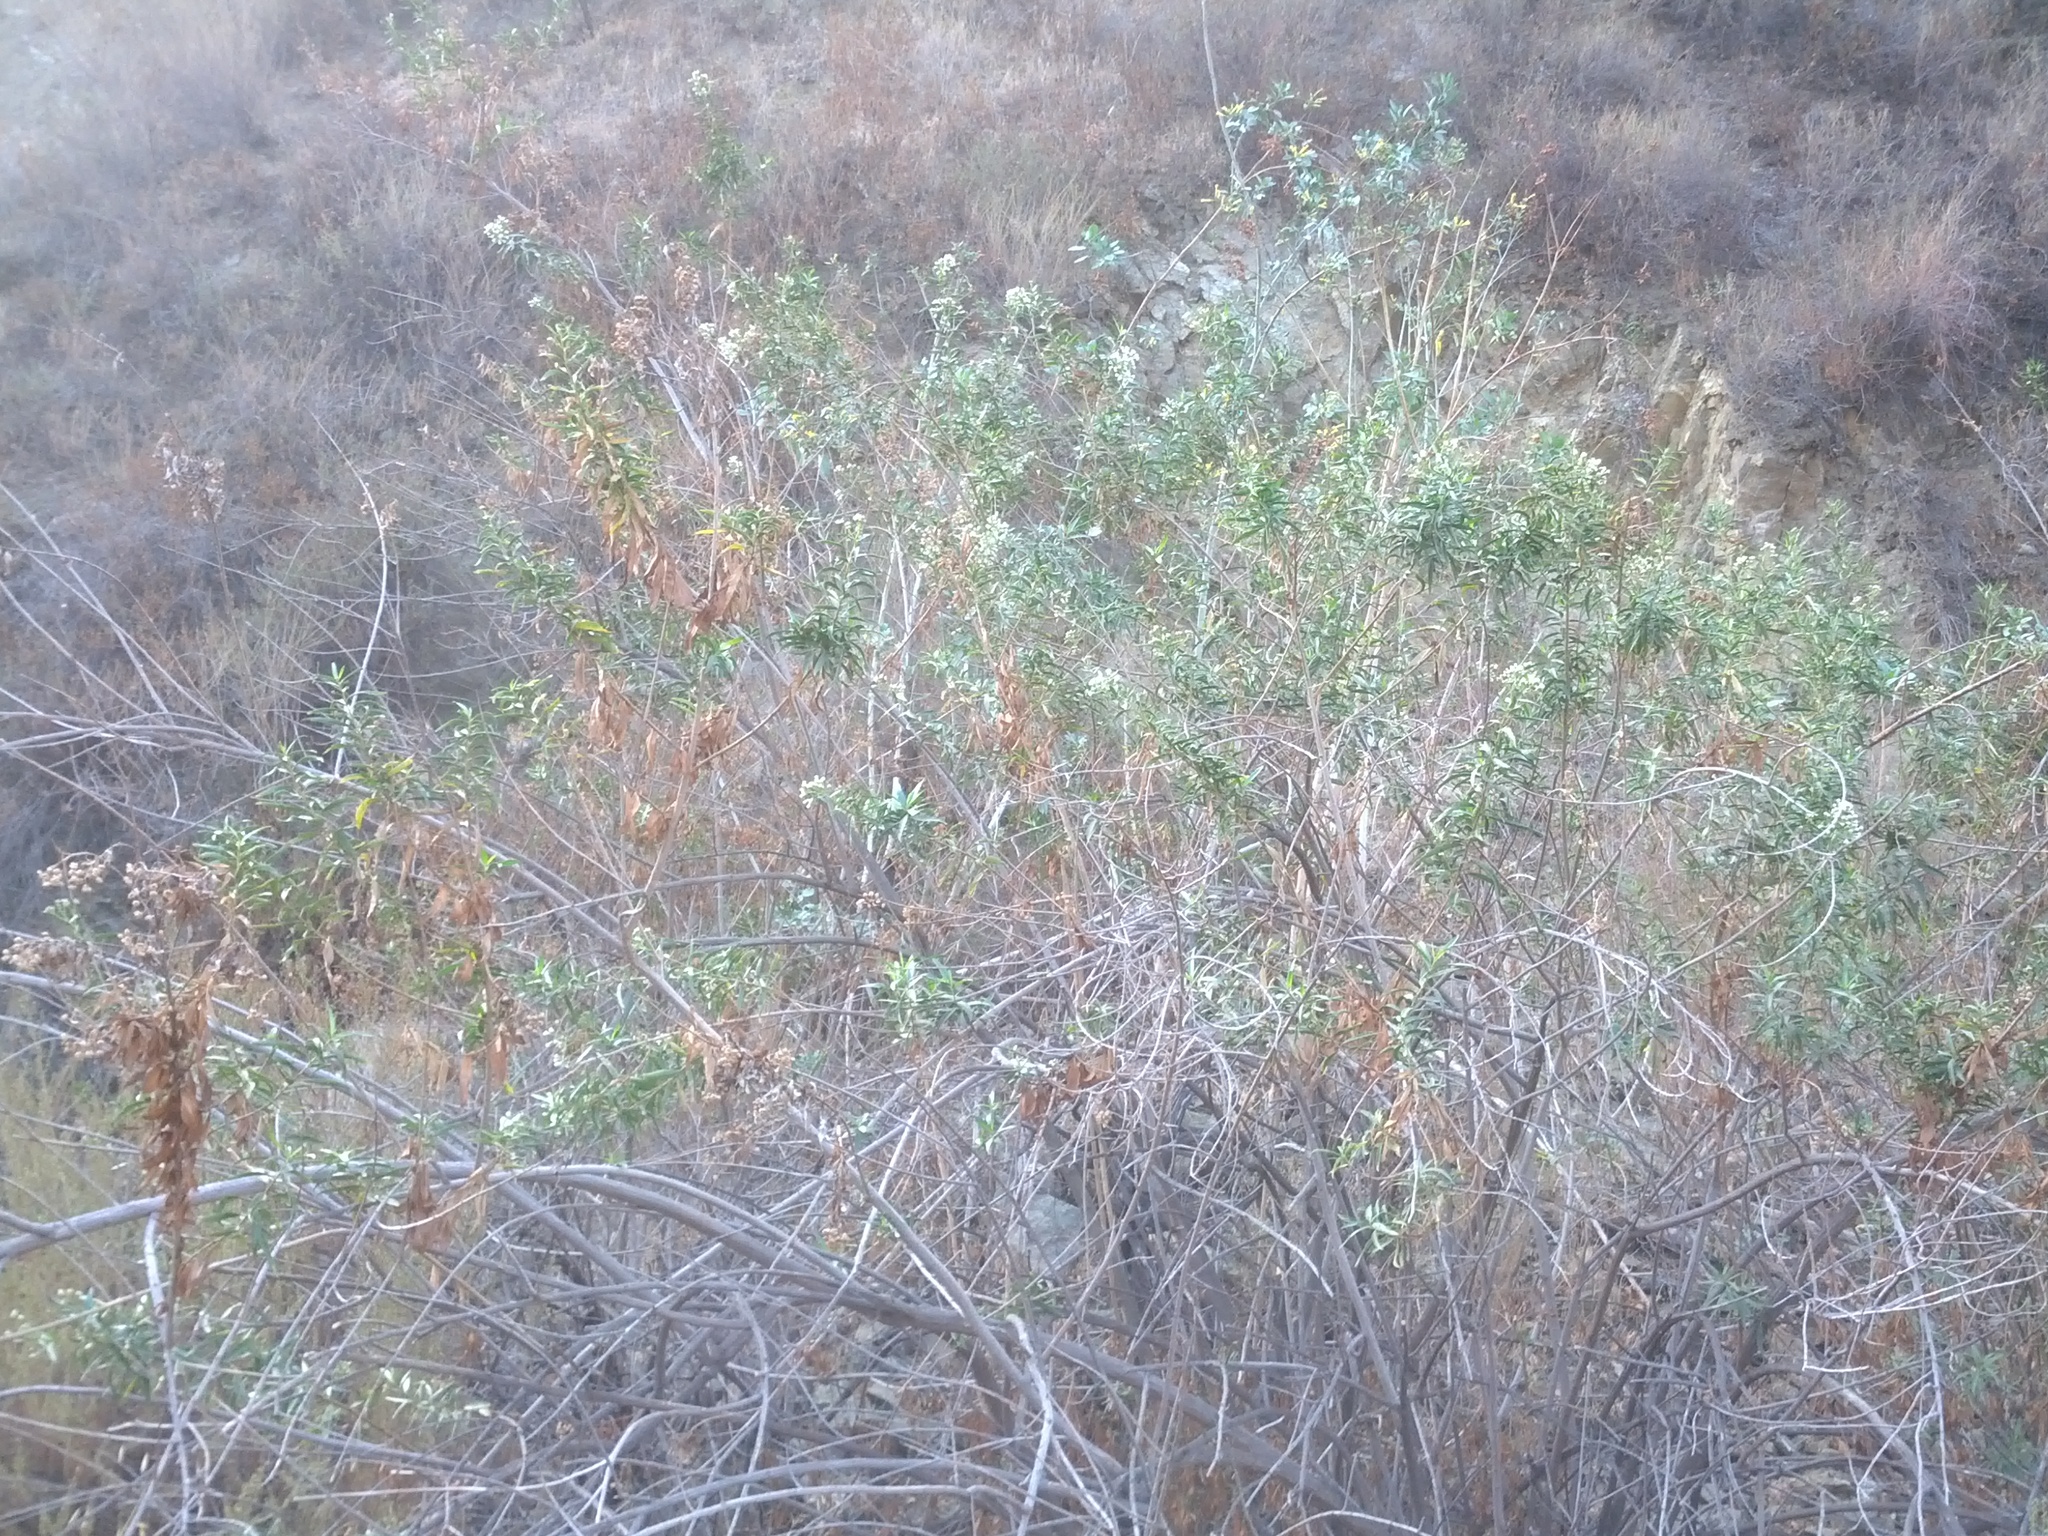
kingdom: Plantae
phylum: Tracheophyta
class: Magnoliopsida
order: Asterales
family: Asteraceae
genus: Baccharis
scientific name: Baccharis salicifolia
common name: Sticky baccharis
